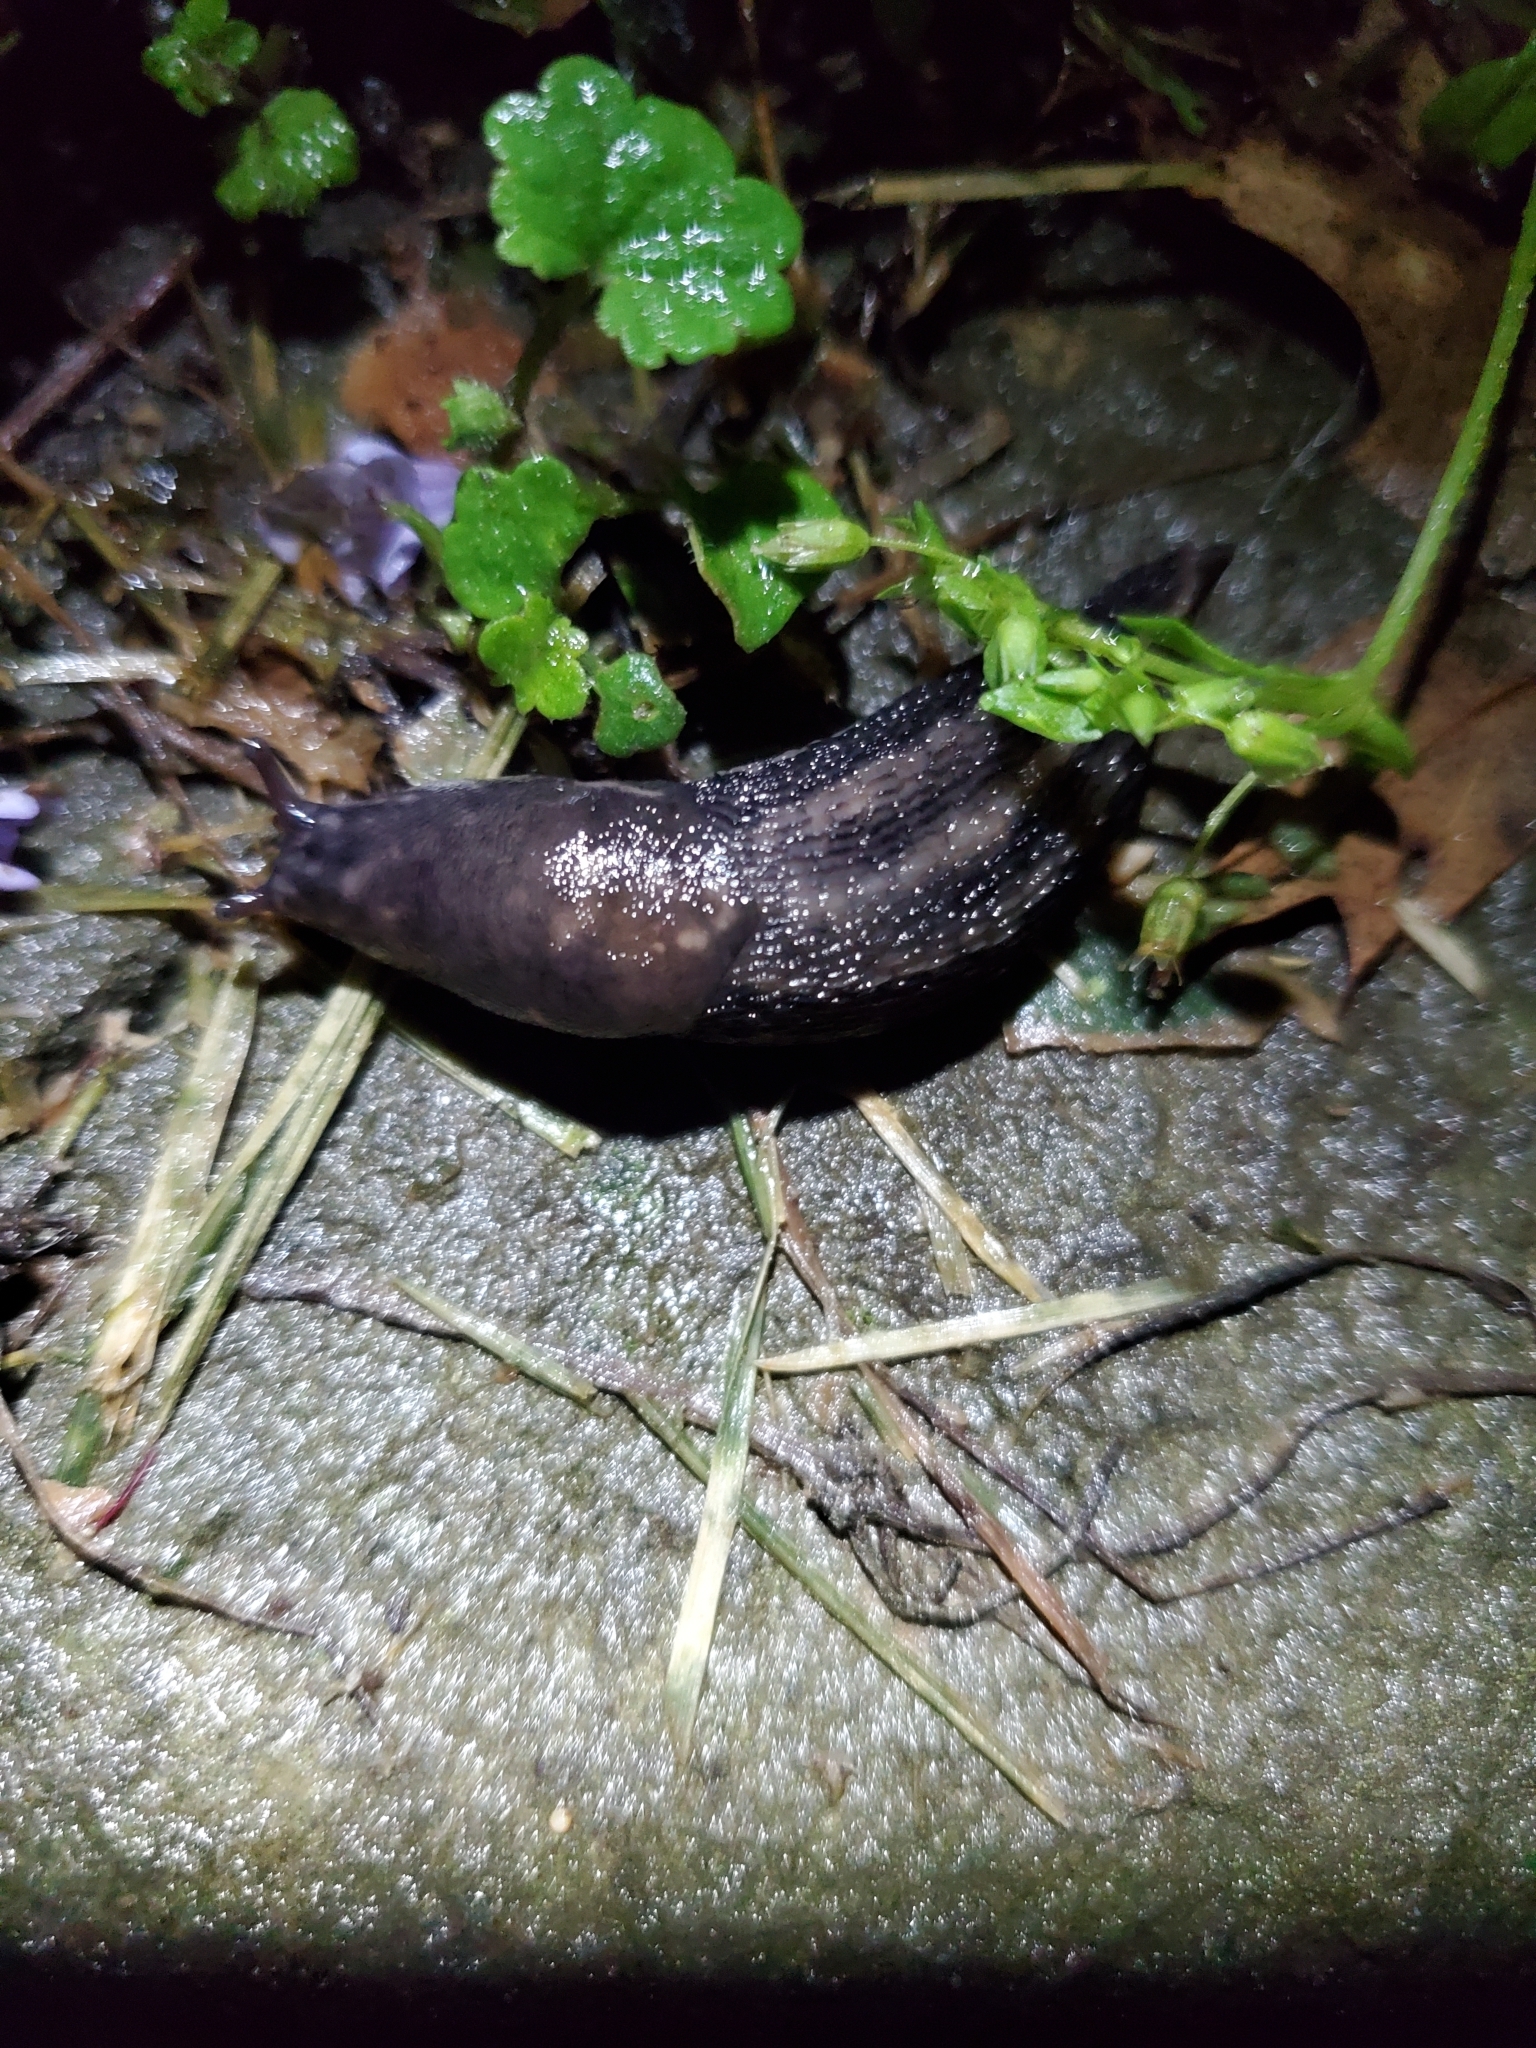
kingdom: Animalia
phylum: Mollusca
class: Gastropoda
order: Stylommatophora
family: Limacidae
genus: Limax
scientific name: Limax maximus
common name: Great grey slug
